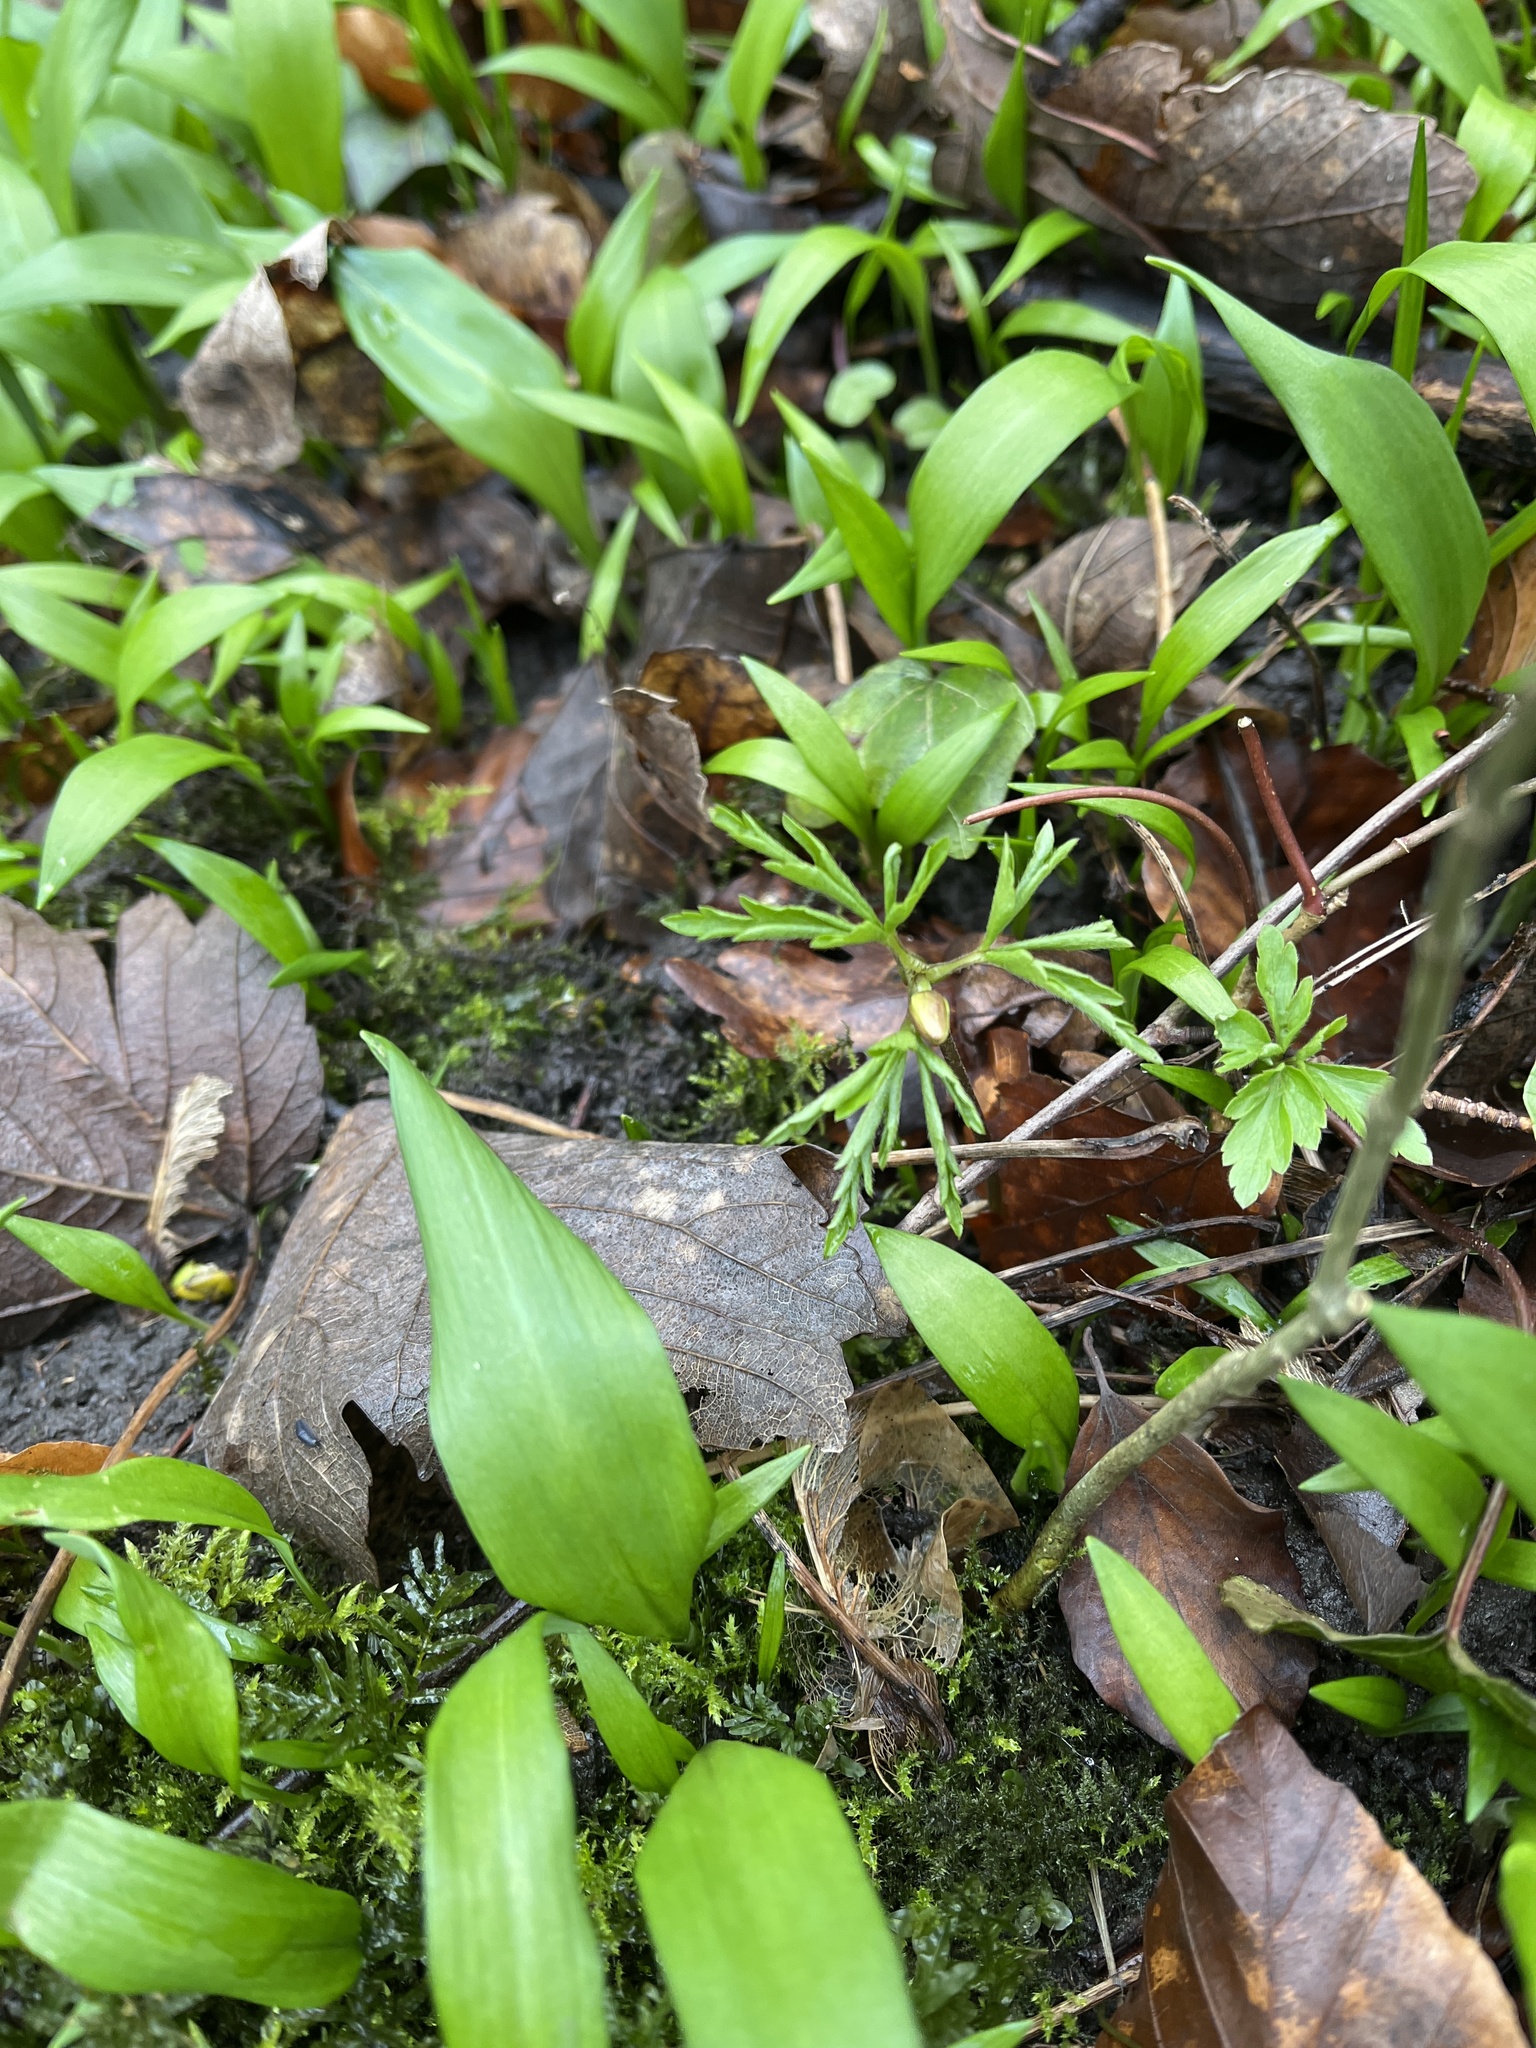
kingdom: Plantae
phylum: Tracheophyta
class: Magnoliopsida
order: Ranunculales
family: Ranunculaceae
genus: Anemone
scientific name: Anemone nemorosa
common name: Wood anemone
